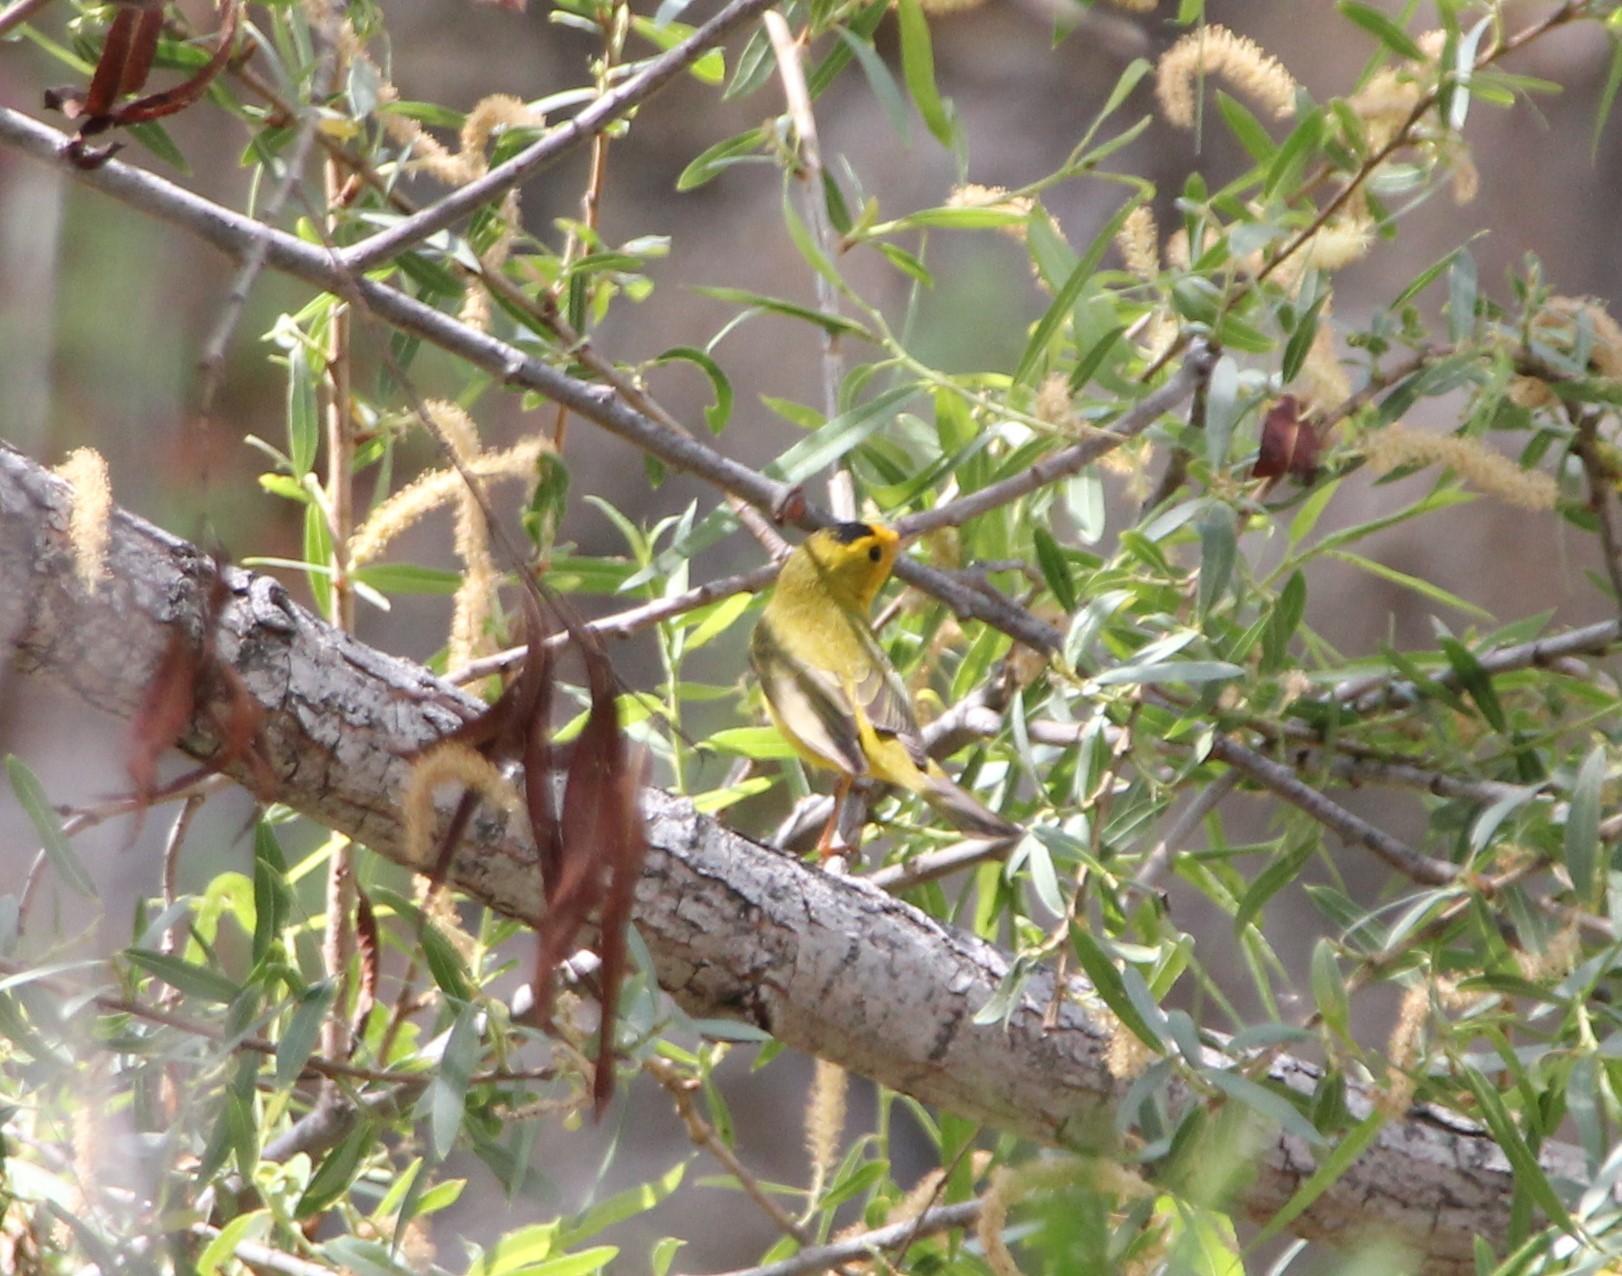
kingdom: Animalia
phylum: Chordata
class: Aves
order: Passeriformes
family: Parulidae
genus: Cardellina
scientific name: Cardellina pusilla
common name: Wilson's warbler
